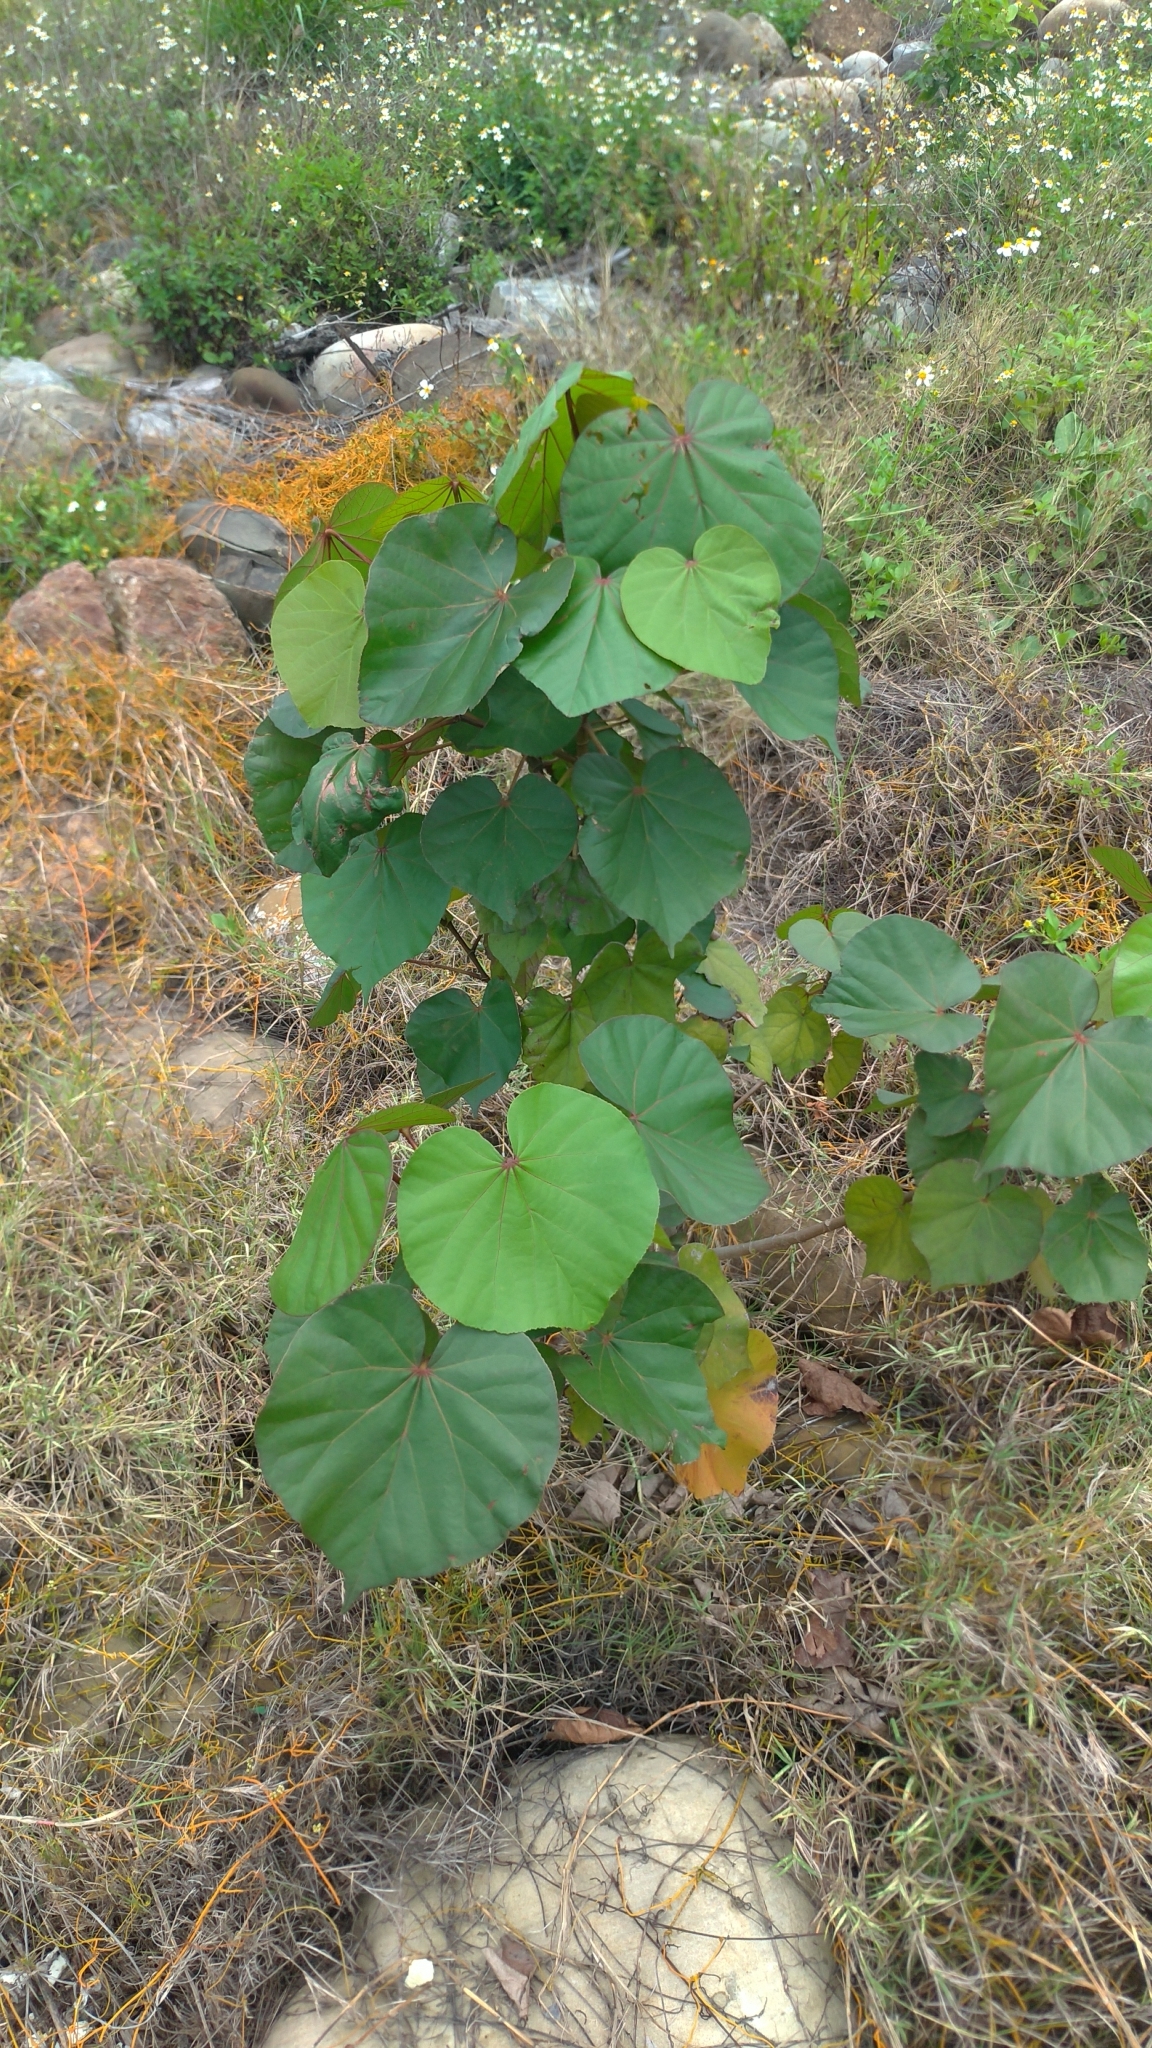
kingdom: Plantae
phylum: Tracheophyta
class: Magnoliopsida
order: Malvales
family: Malvaceae
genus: Talipariti
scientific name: Talipariti tiliaceum
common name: Sea hibiscus
